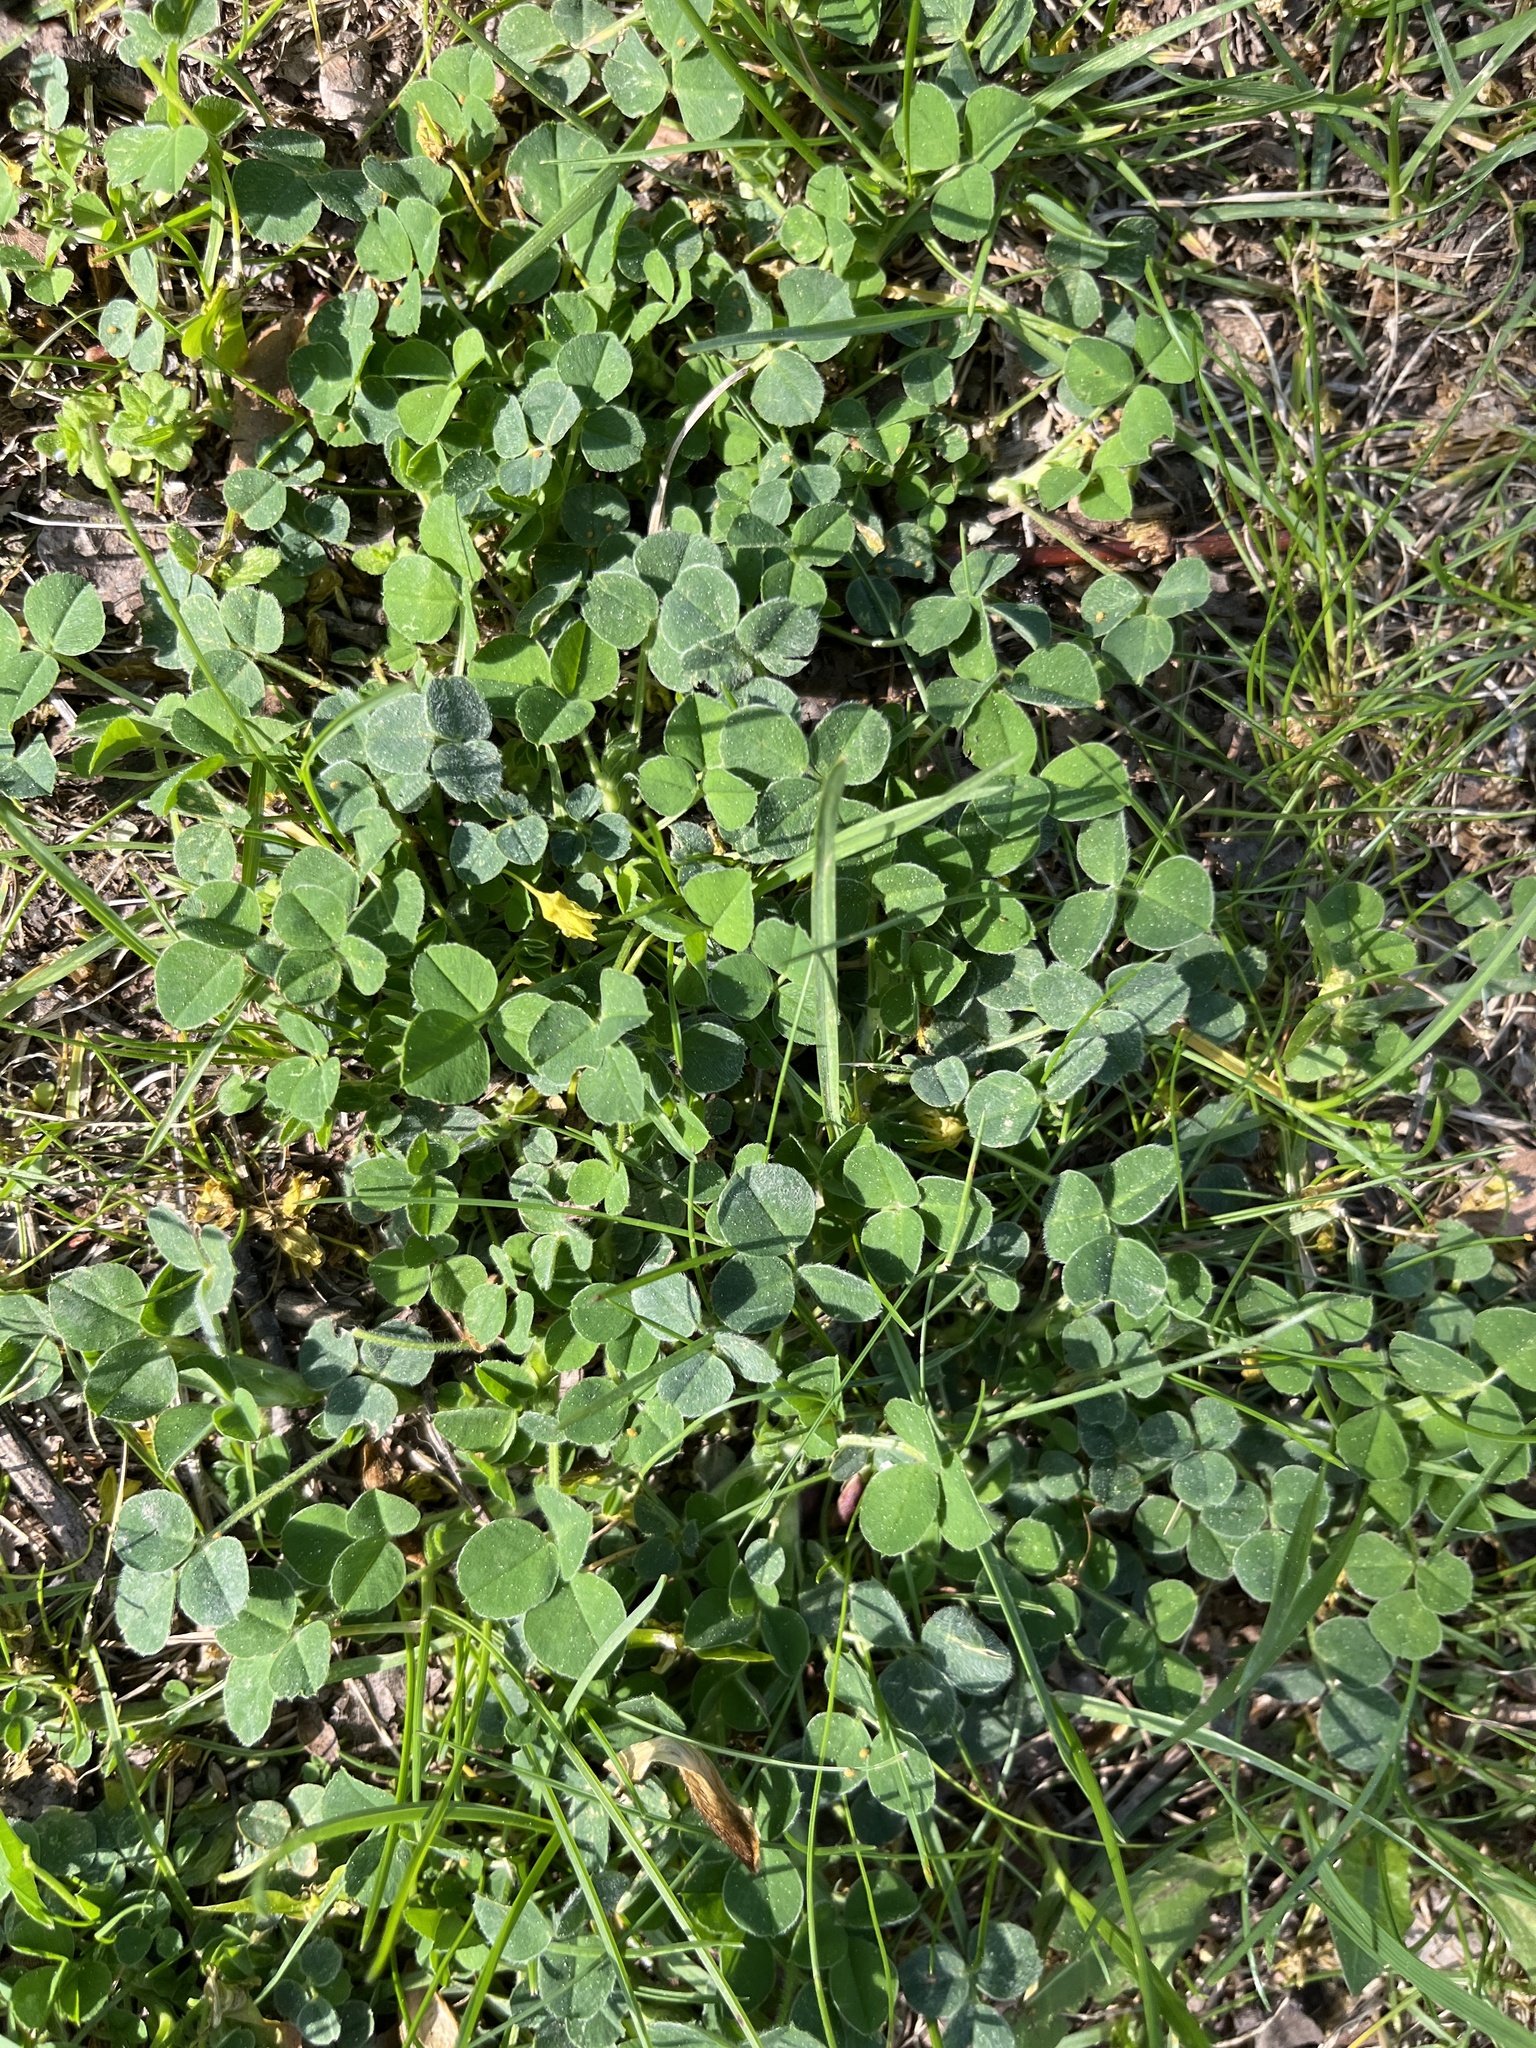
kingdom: Plantae
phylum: Tracheophyta
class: Magnoliopsida
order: Fabales
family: Fabaceae
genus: Medicago
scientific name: Medicago lupulina
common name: Black medick
